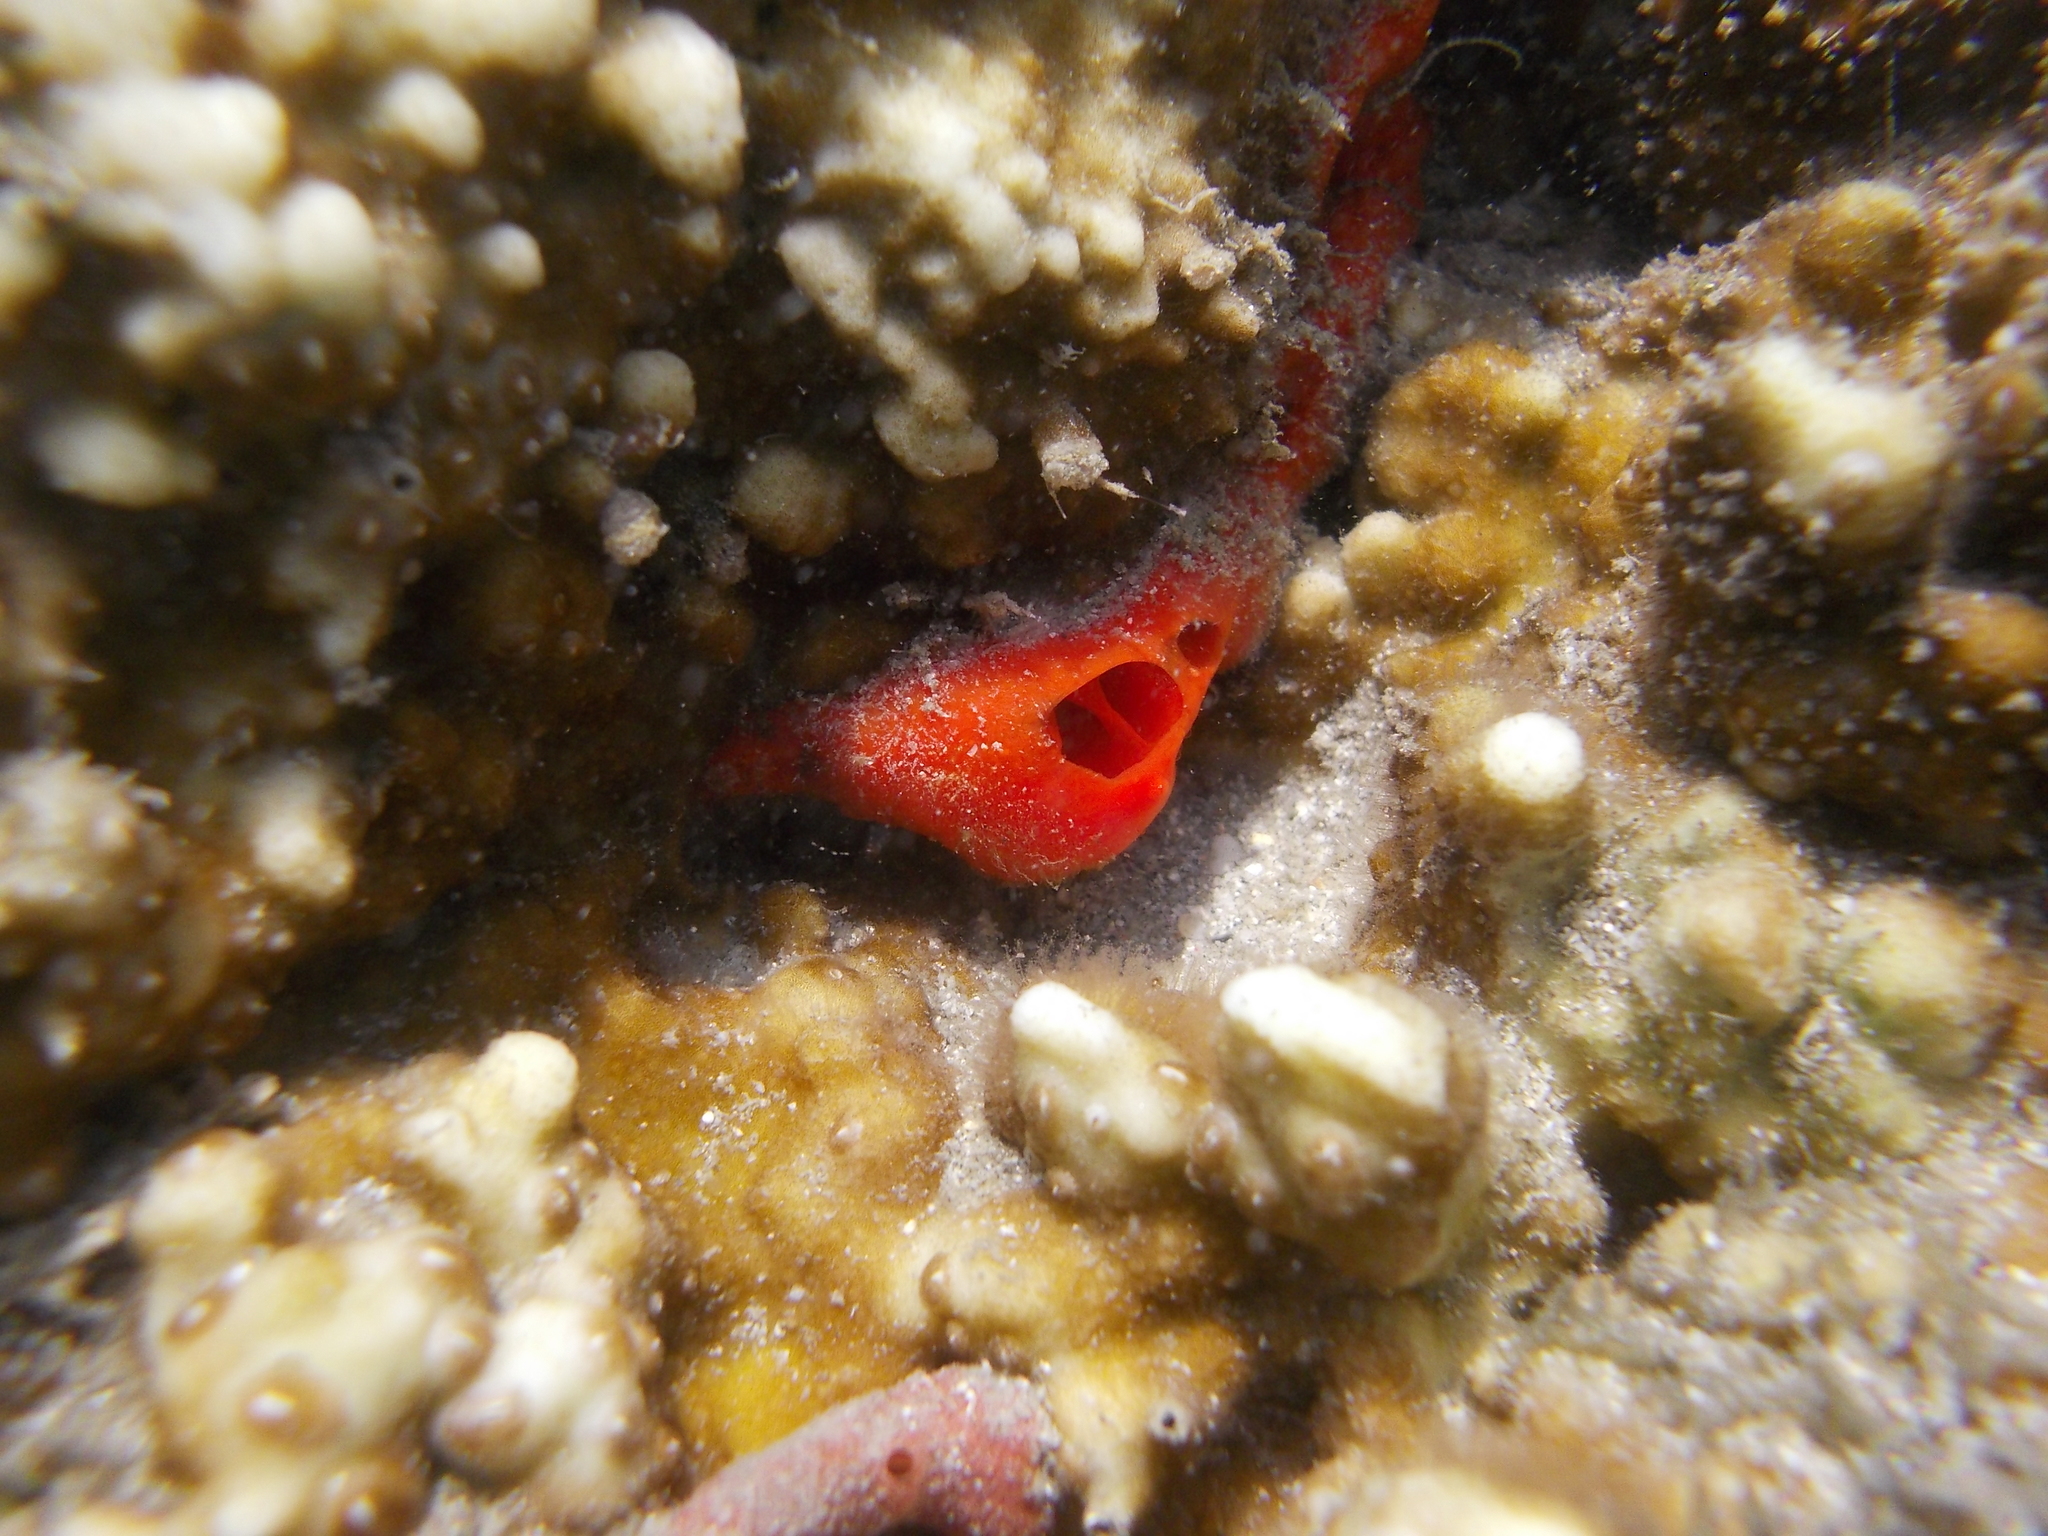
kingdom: Animalia
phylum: Porifera
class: Demospongiae
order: Poecilosclerida
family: Mycalidae
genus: Mycale
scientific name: Mycale grandis
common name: Orange sponge
